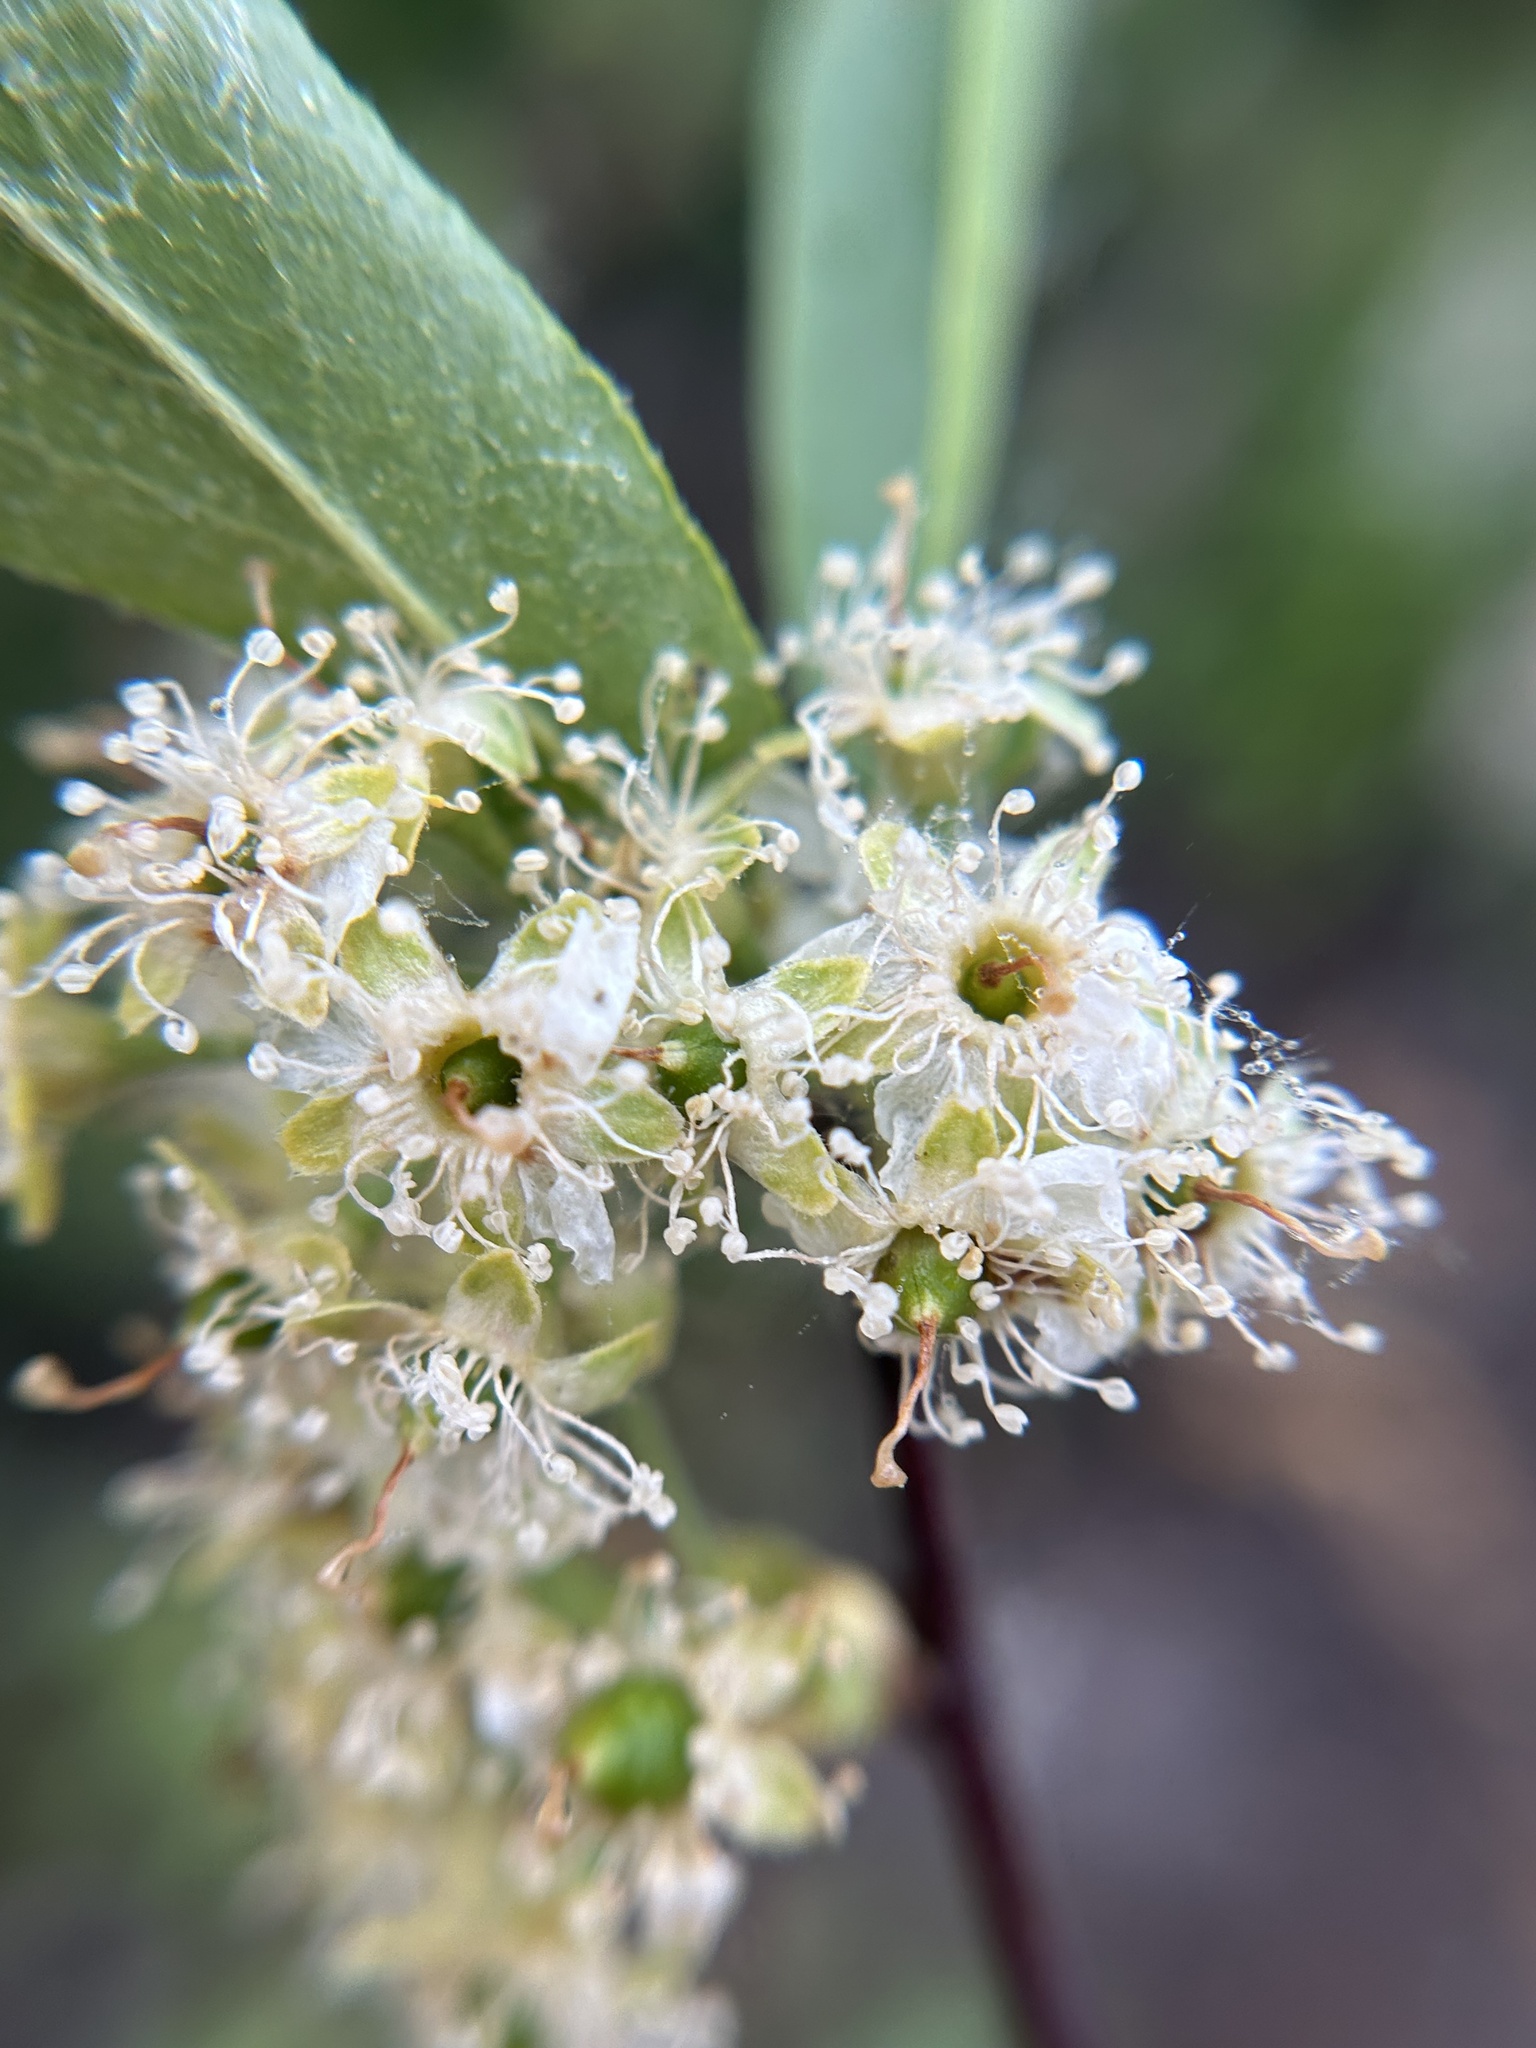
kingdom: Plantae
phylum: Tracheophyta
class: Magnoliopsida
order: Rosales
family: Rosaceae
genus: Prunus
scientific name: Prunus emarginata
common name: Bitter cherry
